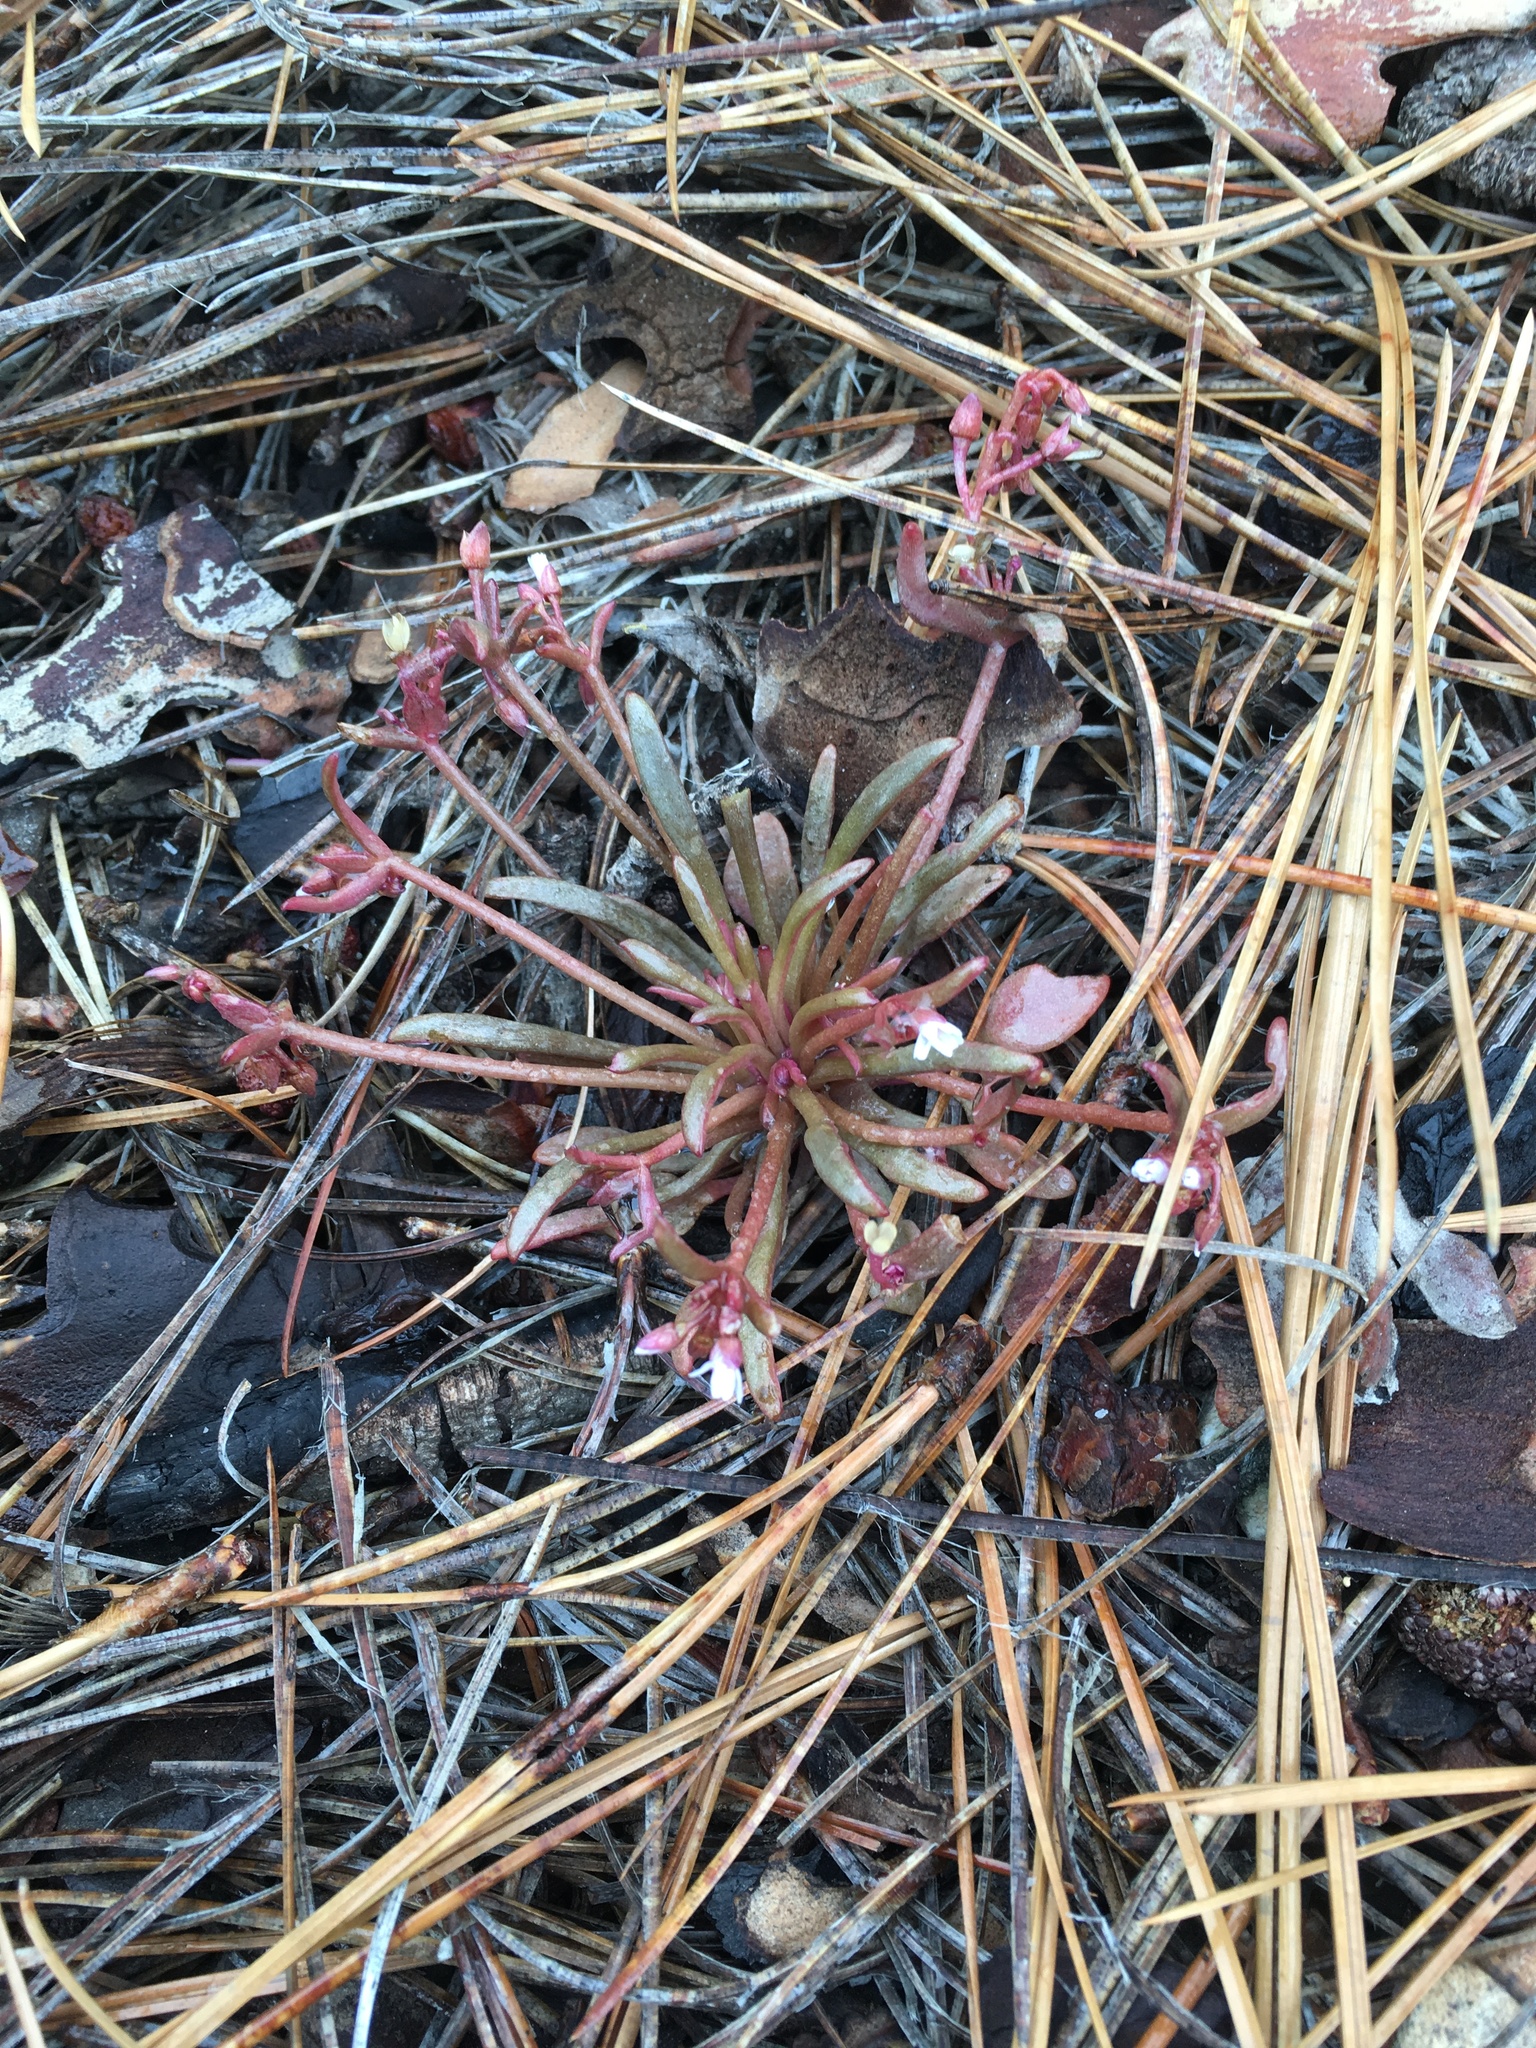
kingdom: Plantae
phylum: Tracheophyta
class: Magnoliopsida
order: Caryophyllales
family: Montiaceae
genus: Claytonia
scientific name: Claytonia parviflora
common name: Indian-lettuce
